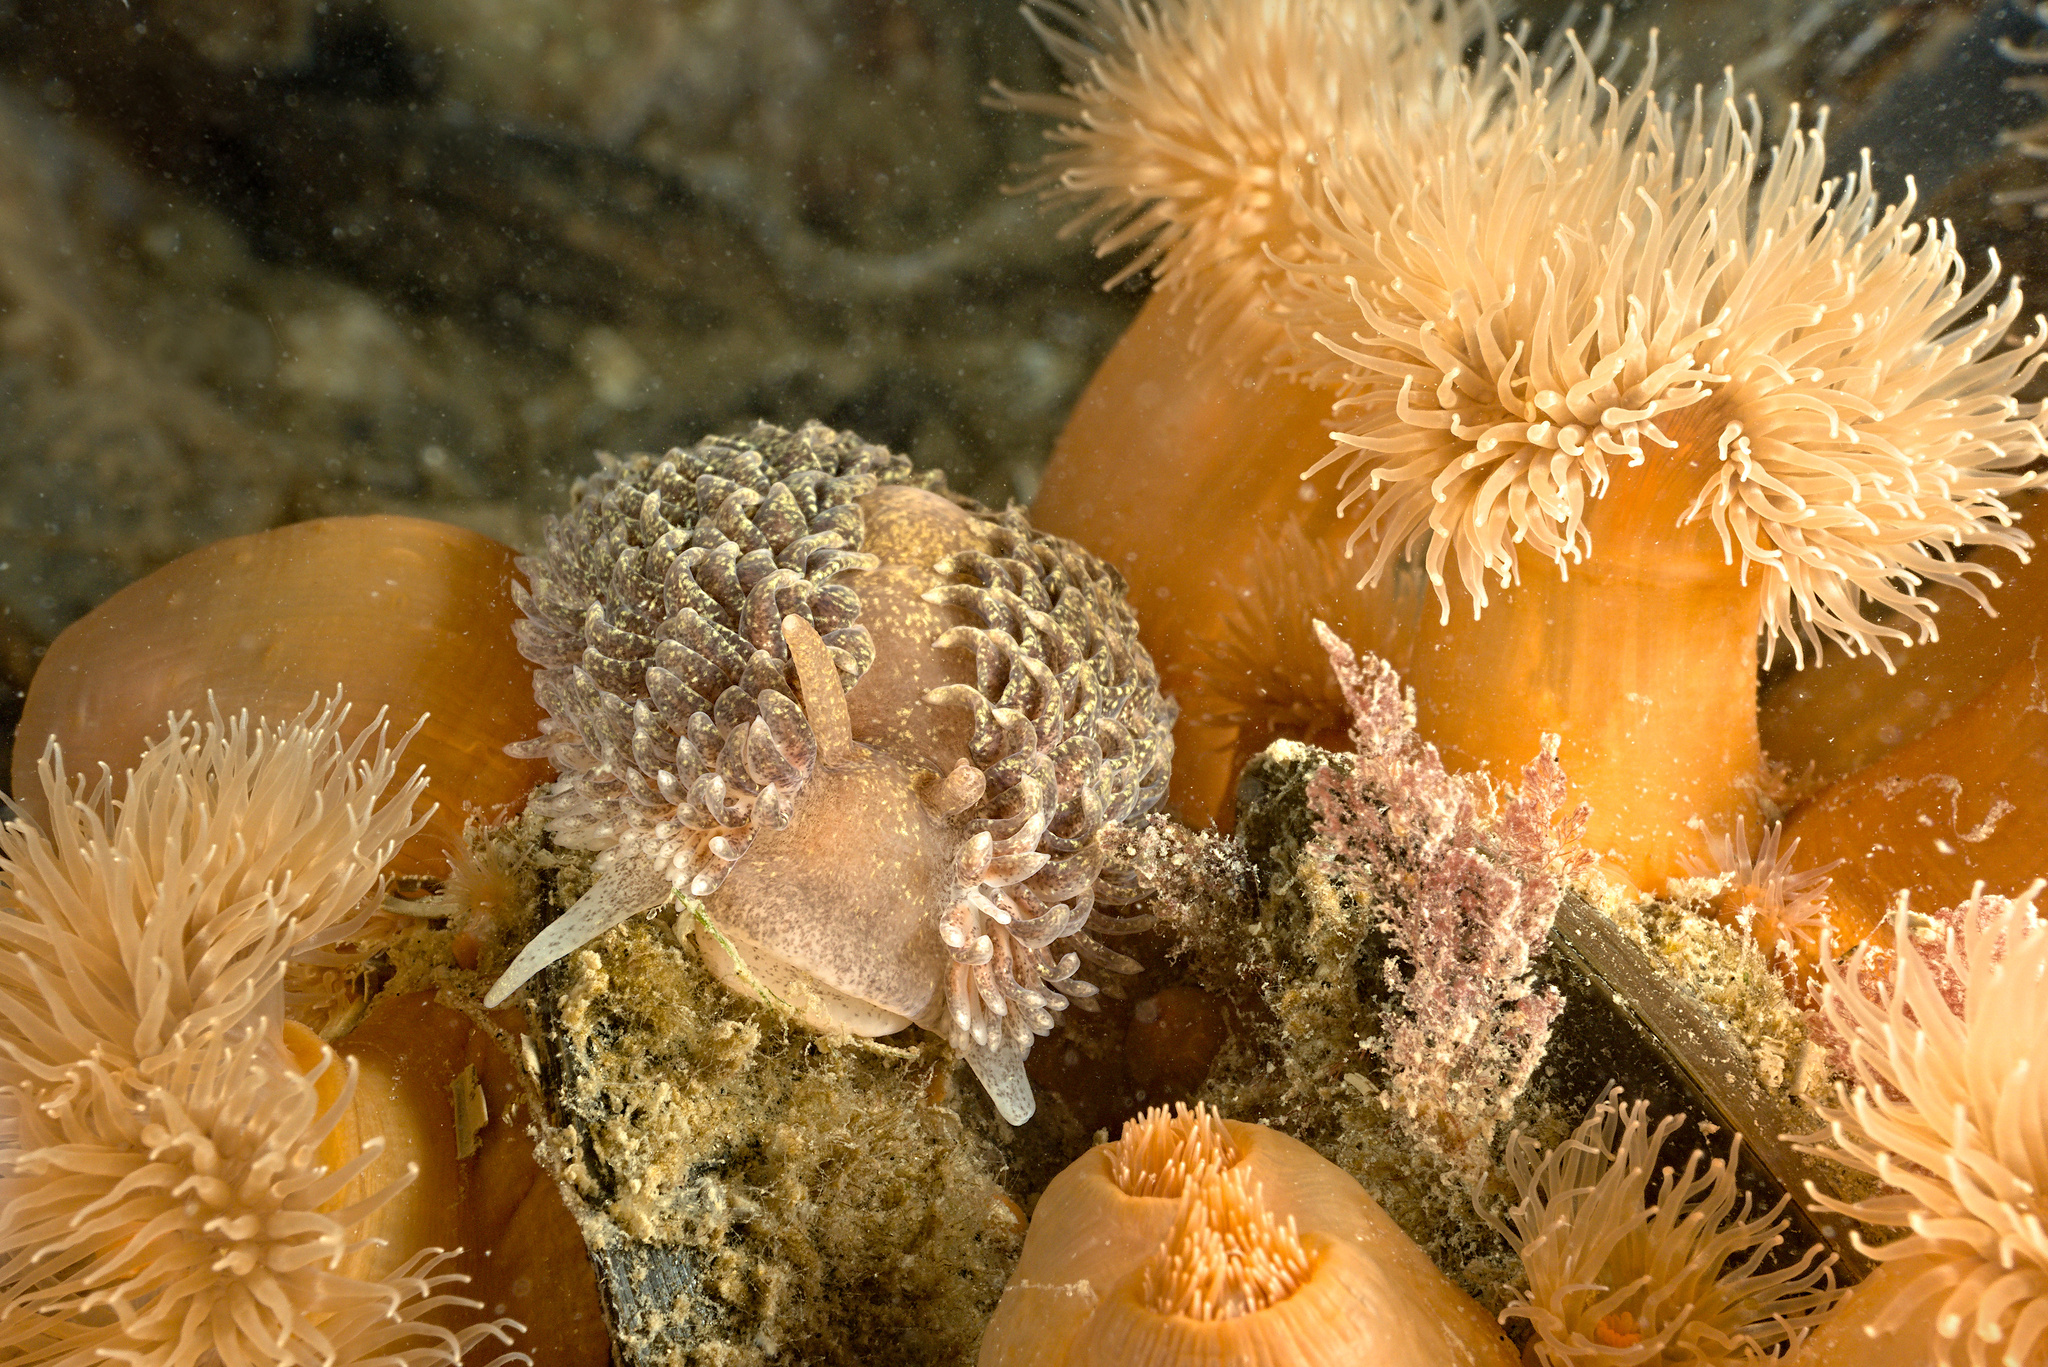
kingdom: Animalia
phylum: Mollusca
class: Gastropoda
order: Nudibranchia
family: Aeolidiidae
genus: Aeolidia
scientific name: Aeolidia papillosa
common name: Common grey sea slug
